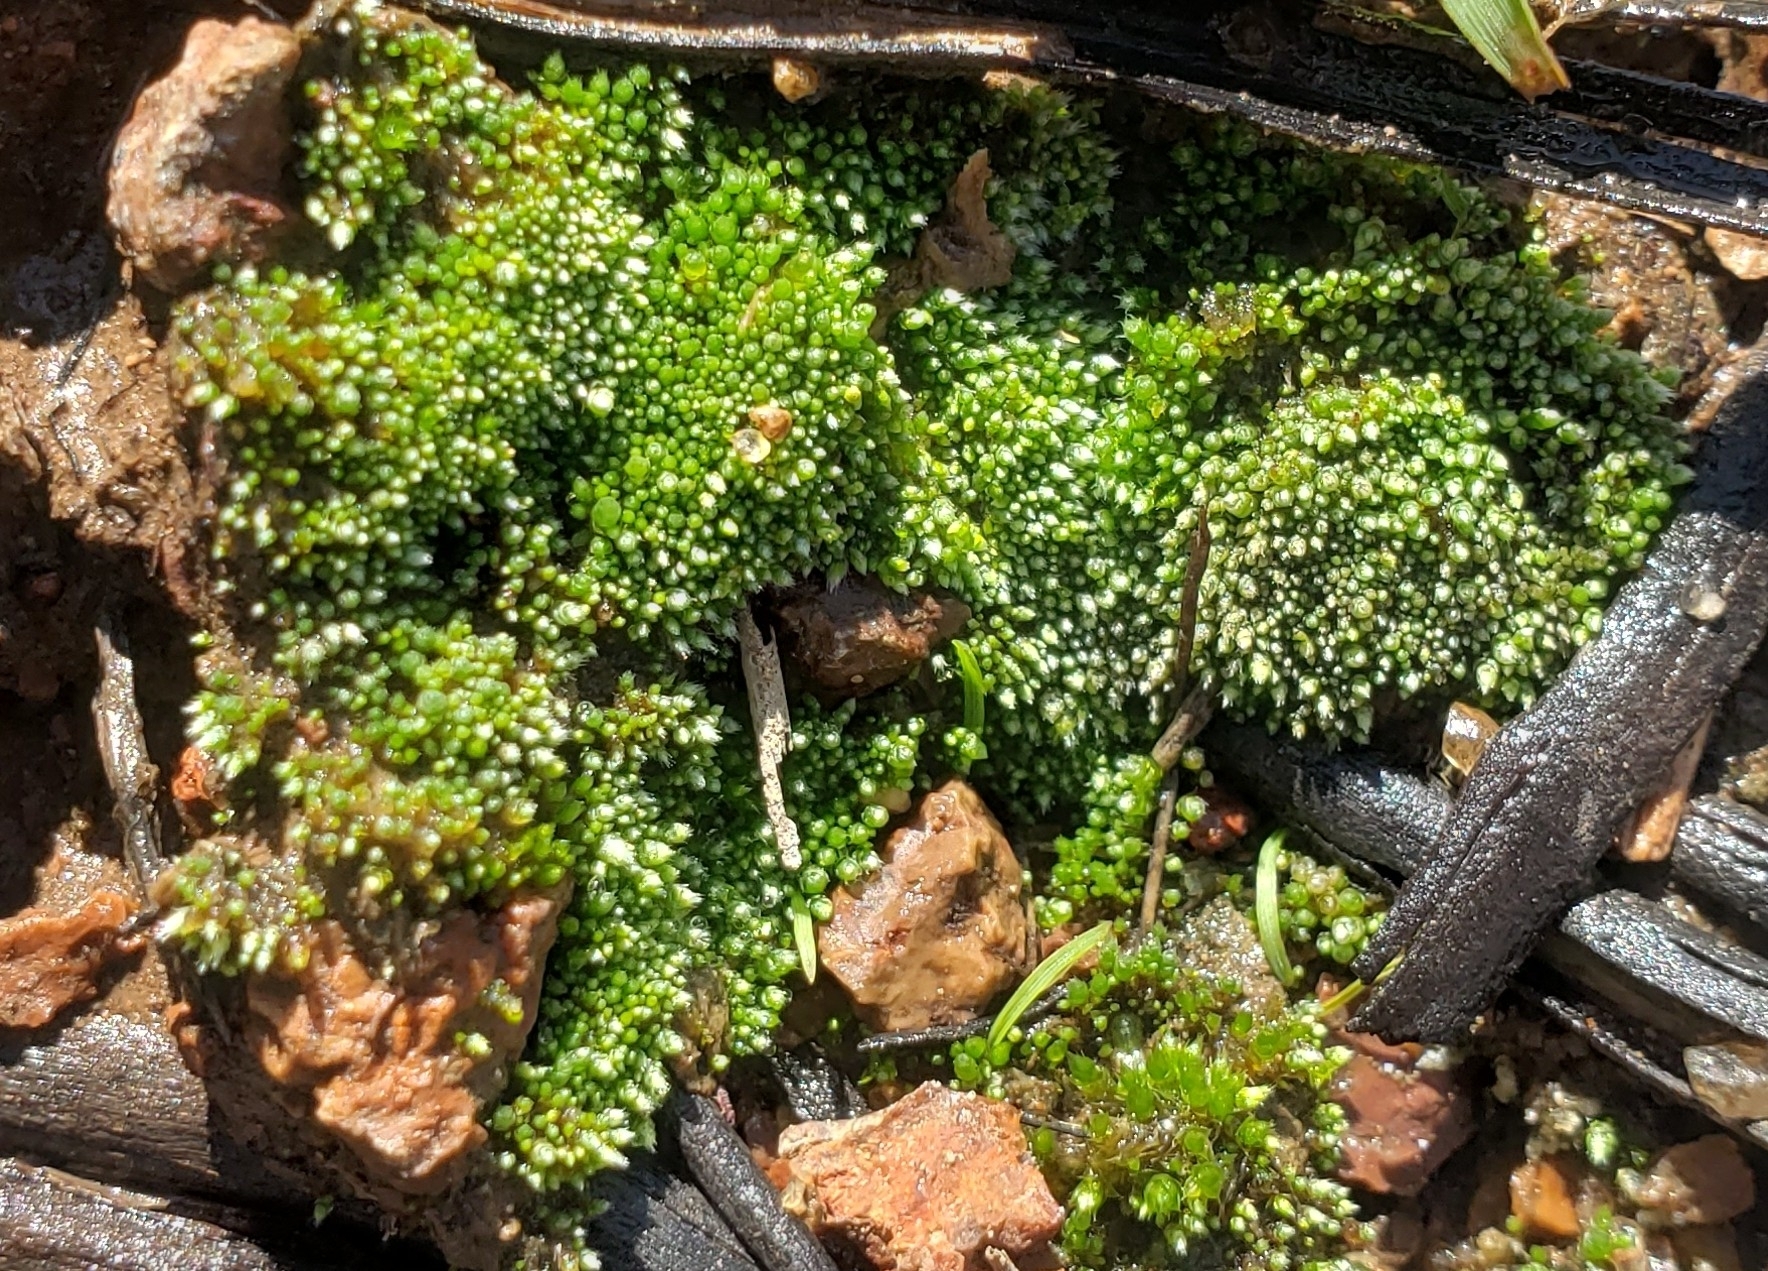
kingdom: Plantae
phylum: Bryophyta
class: Bryopsida
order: Bryales
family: Bryaceae
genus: Bryum
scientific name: Bryum argenteum
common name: Silver-moss
